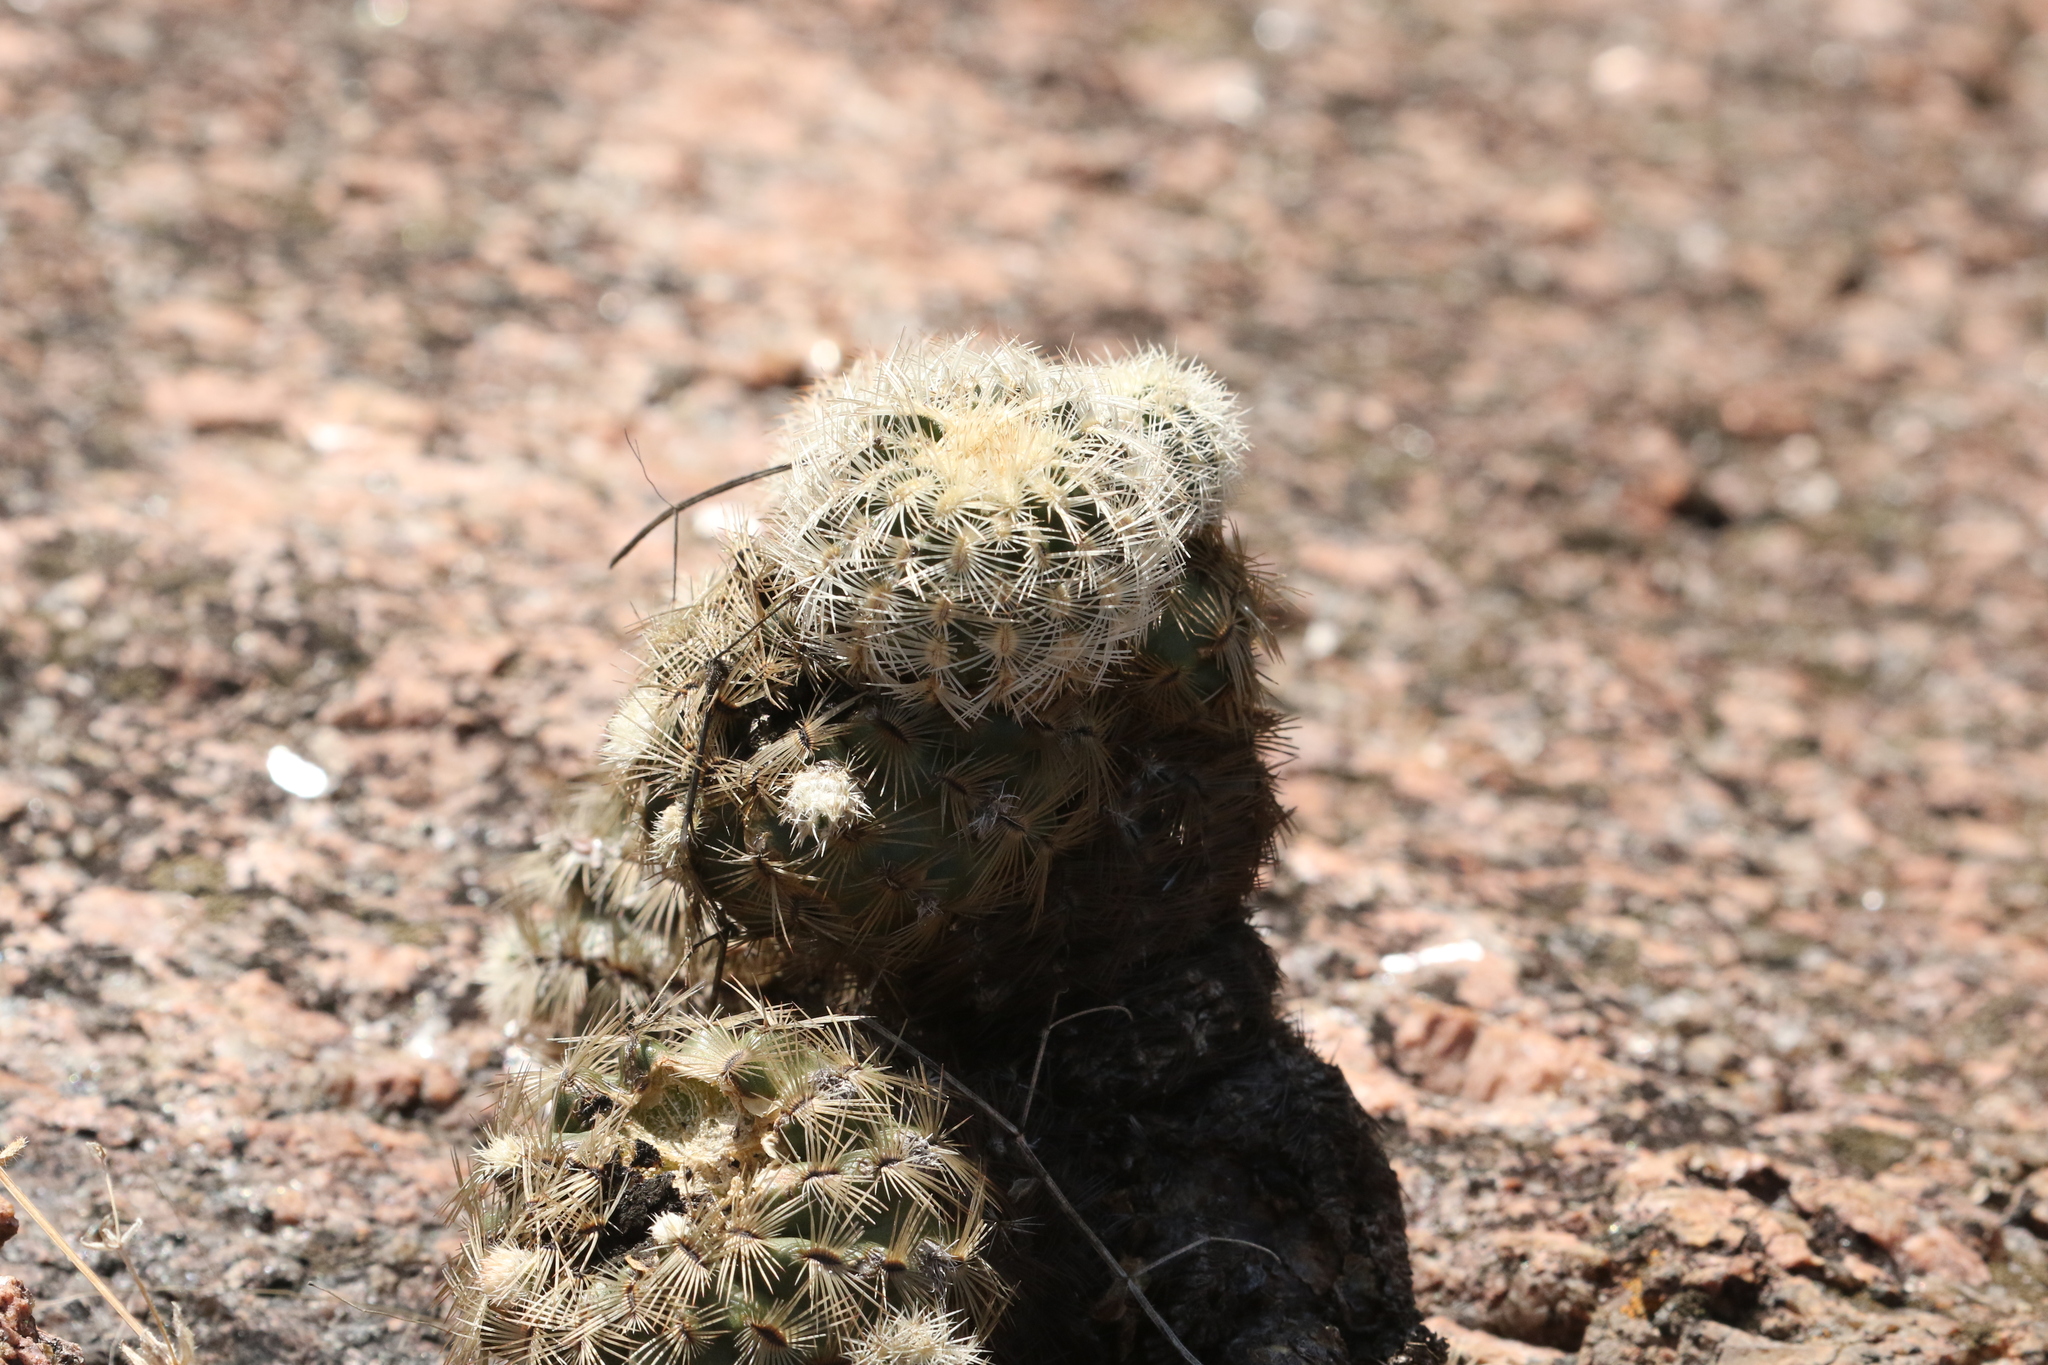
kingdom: Plantae
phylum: Tracheophyta
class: Magnoliopsida
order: Caryophyllales
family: Cactaceae
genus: Echinocereus
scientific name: Echinocereus reichenbachii
